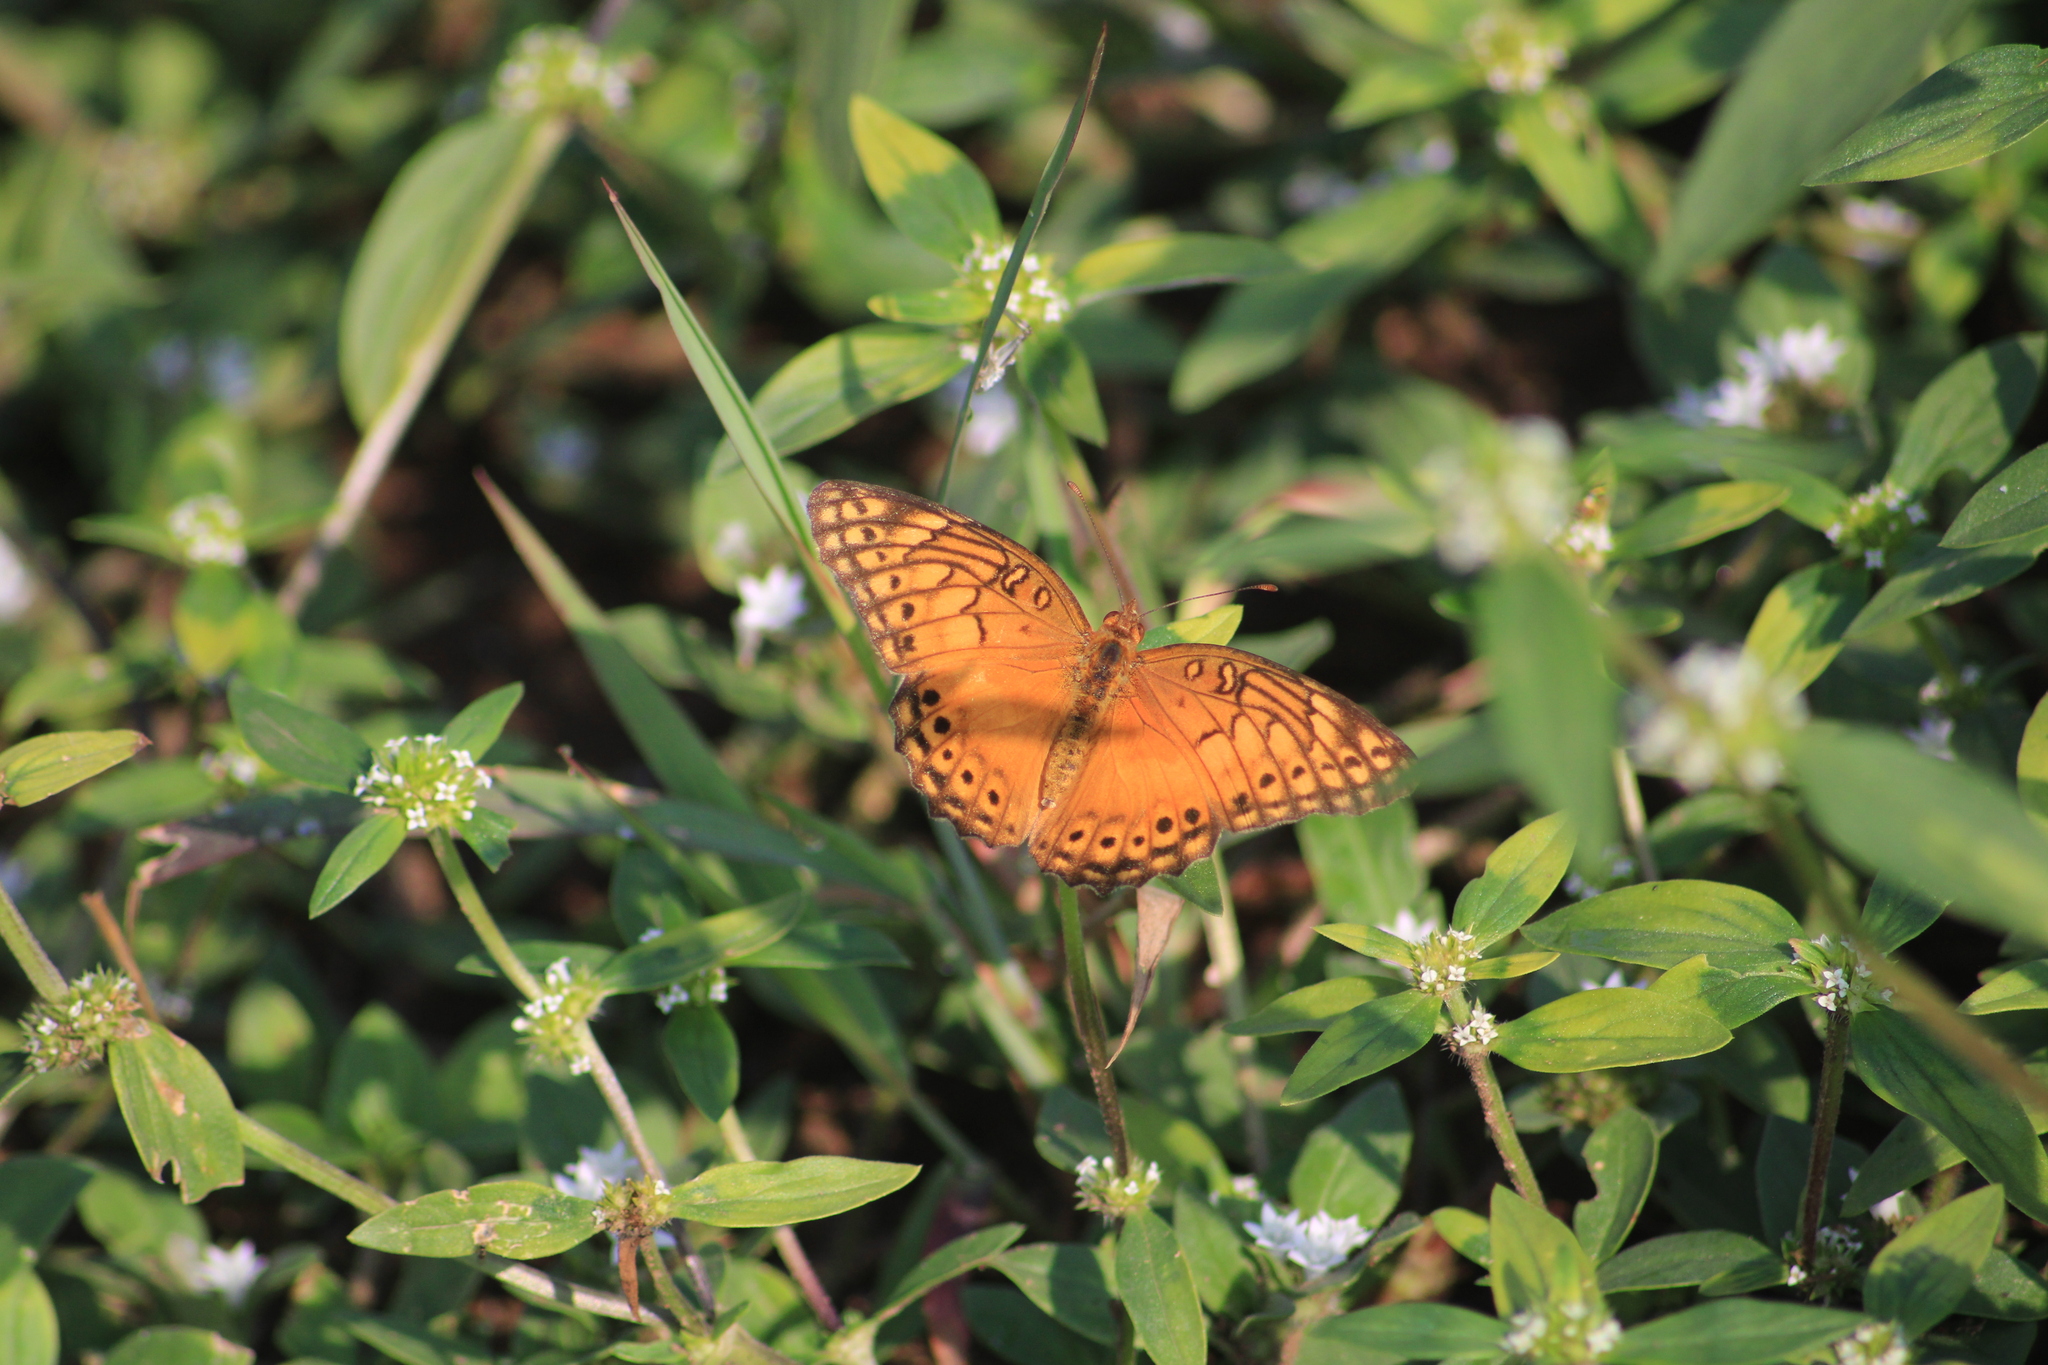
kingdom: Animalia
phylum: Arthropoda
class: Insecta
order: Lepidoptera
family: Nymphalidae
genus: Euptoieta
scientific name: Euptoieta hegesia
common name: Mexican fritillary
